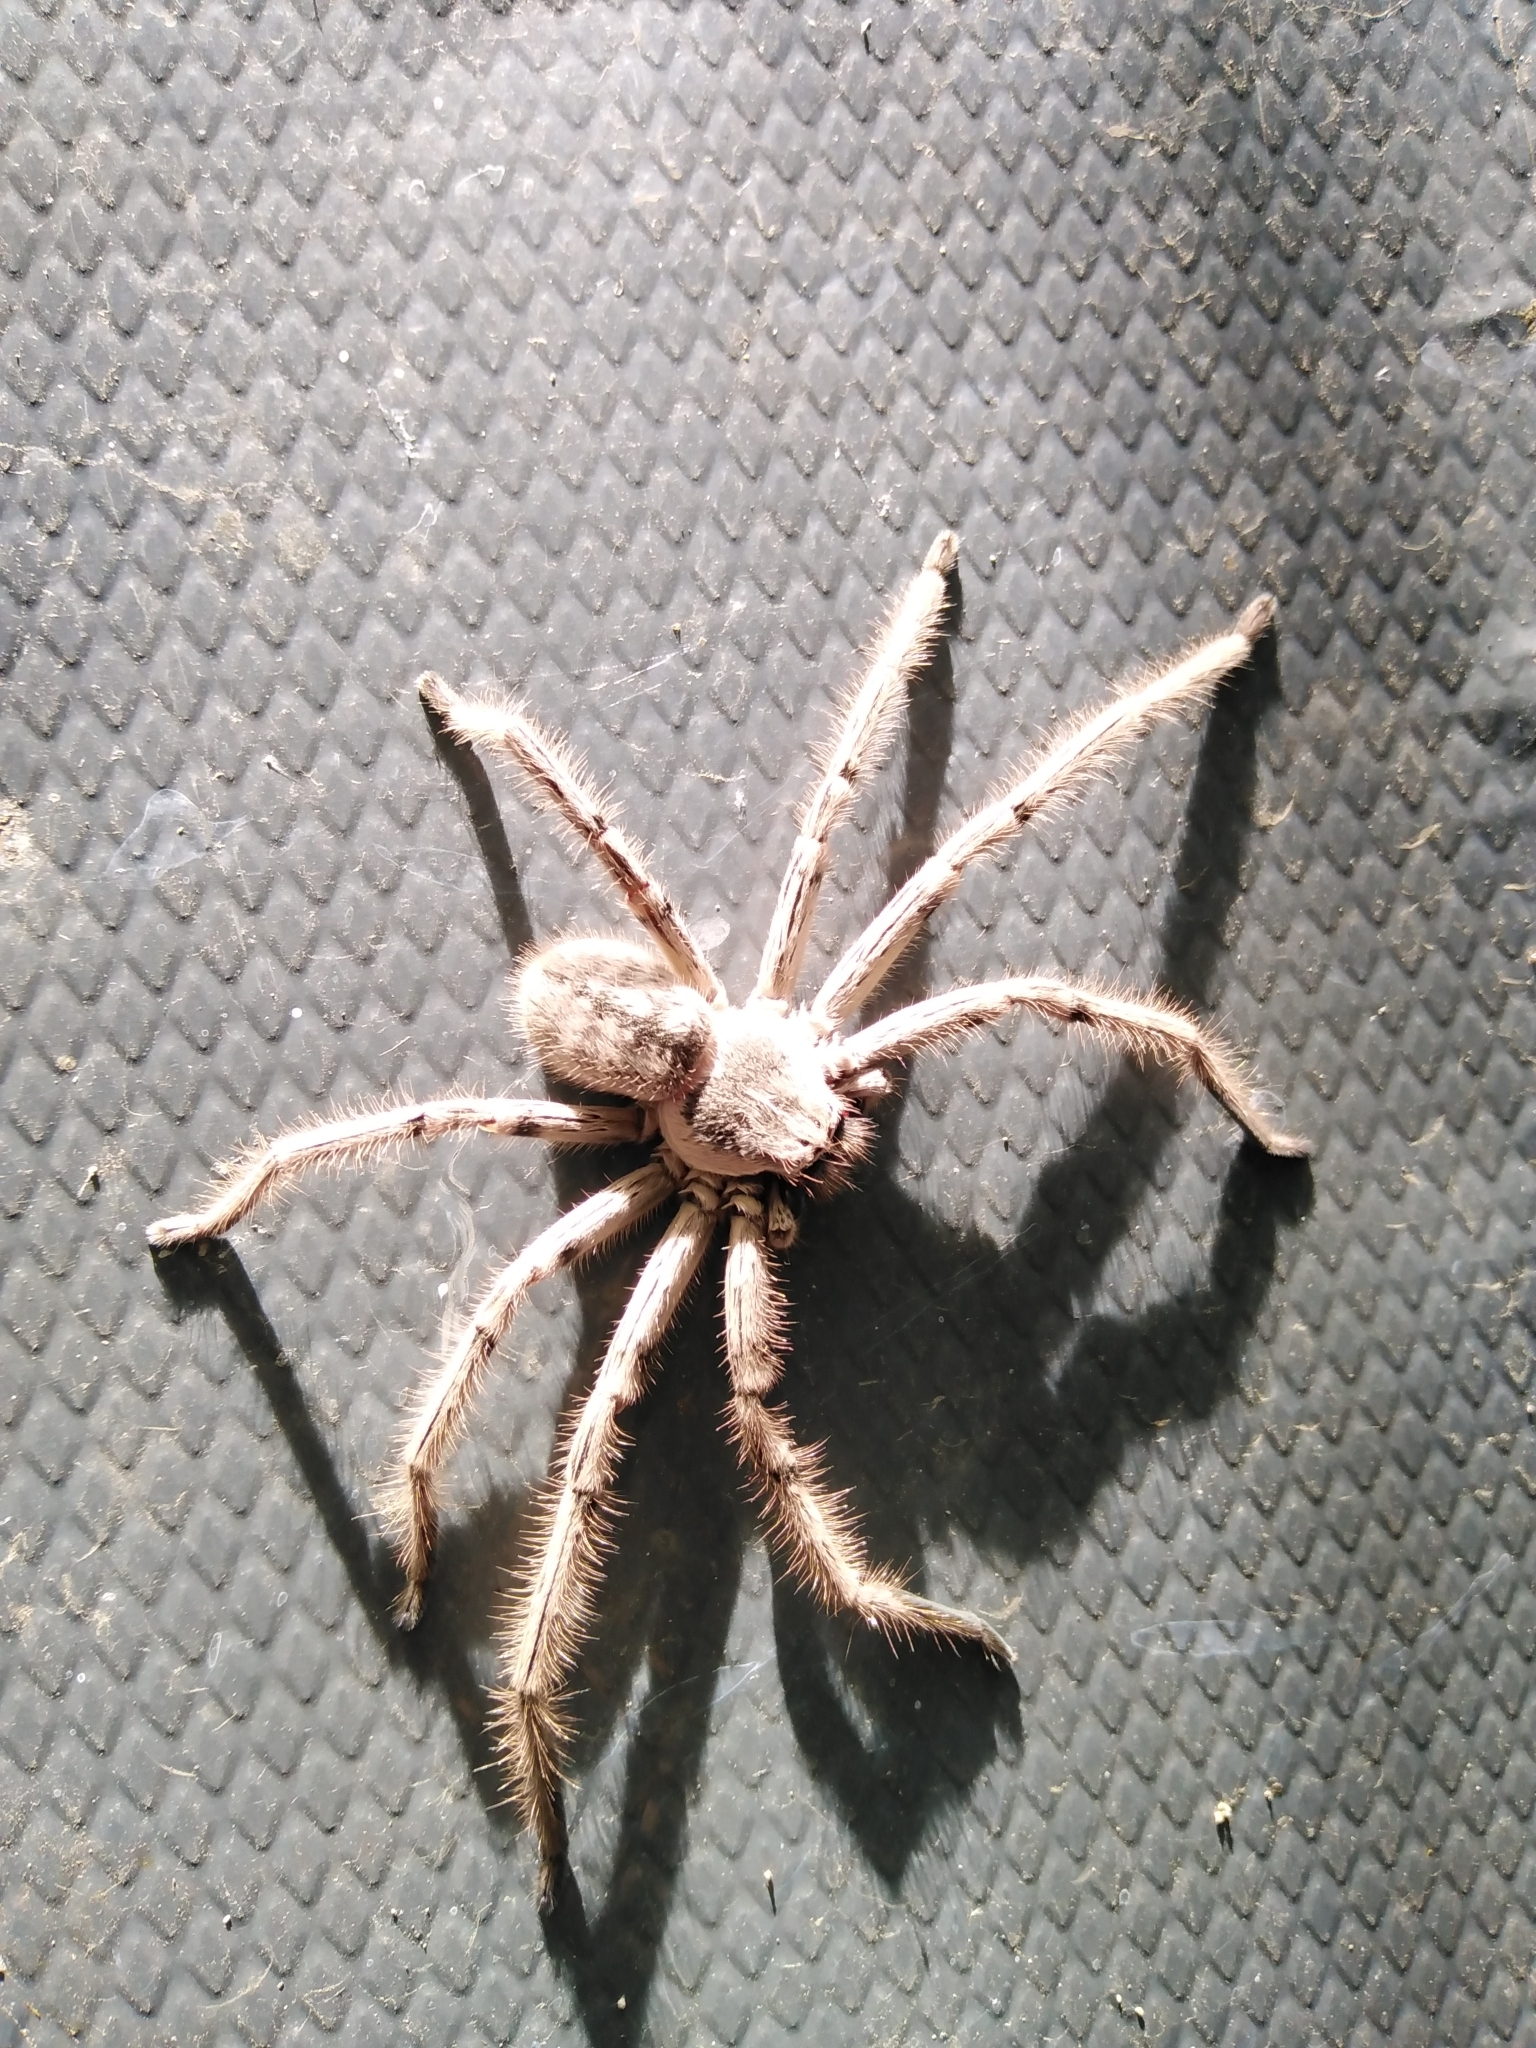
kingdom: Animalia
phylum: Arthropoda
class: Arachnida
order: Araneae
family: Sparassidae
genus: Polybetes
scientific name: Polybetes pythagoricus
